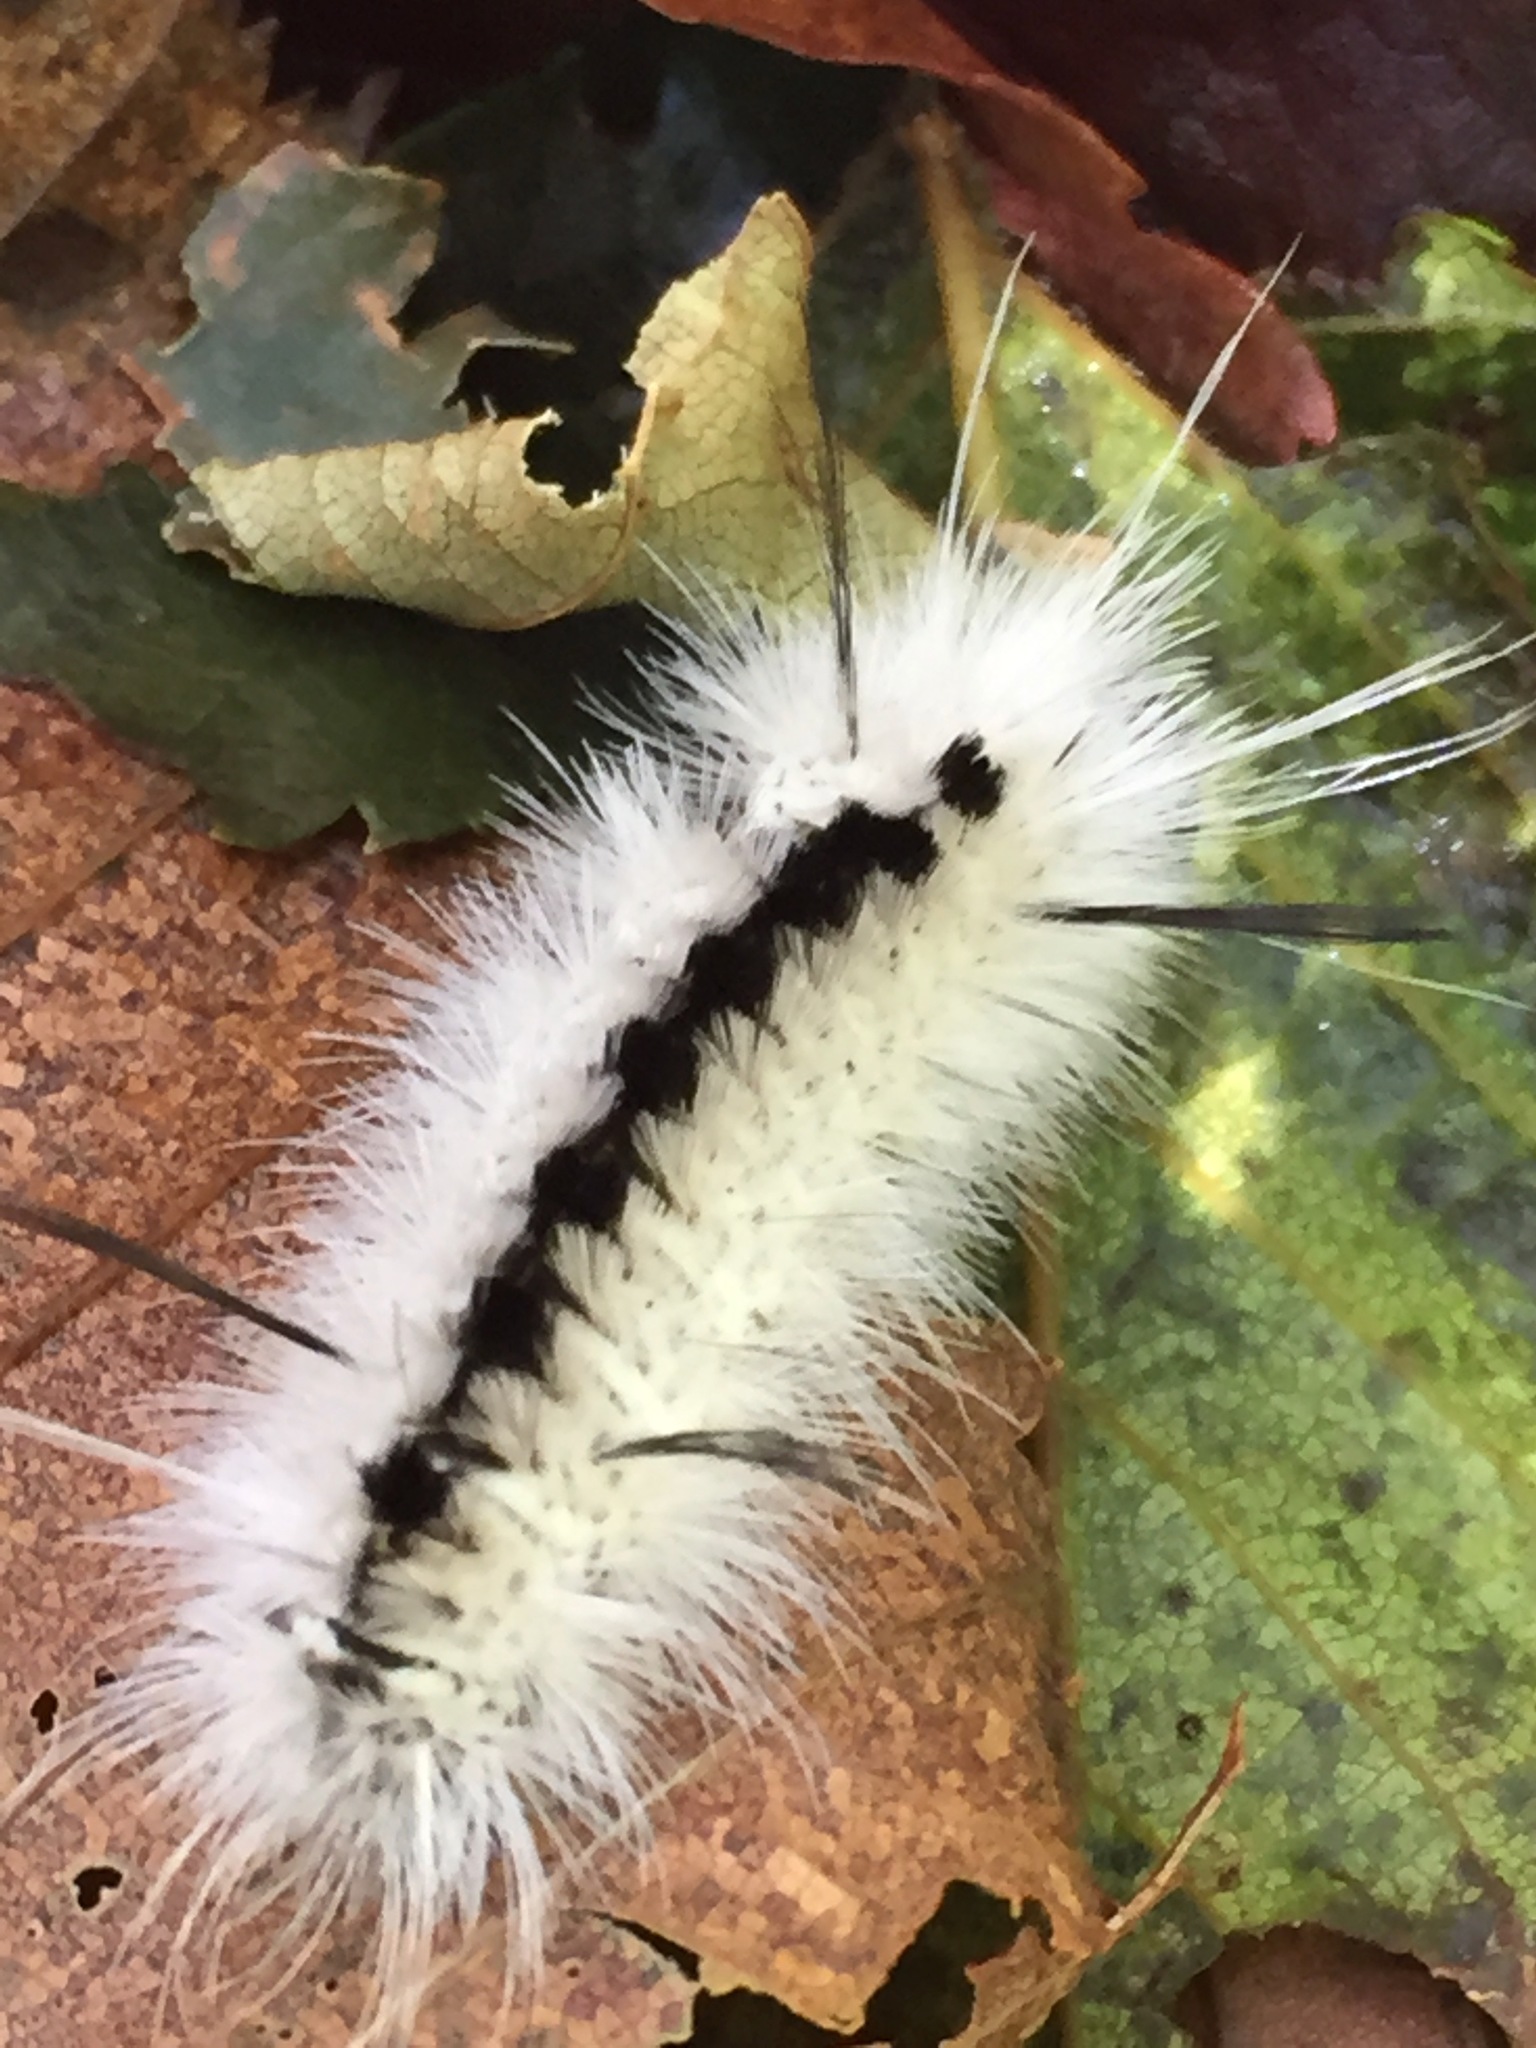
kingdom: Animalia
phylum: Arthropoda
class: Insecta
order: Lepidoptera
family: Erebidae
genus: Lophocampa
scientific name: Lophocampa caryae
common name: Hickory tussock moth
